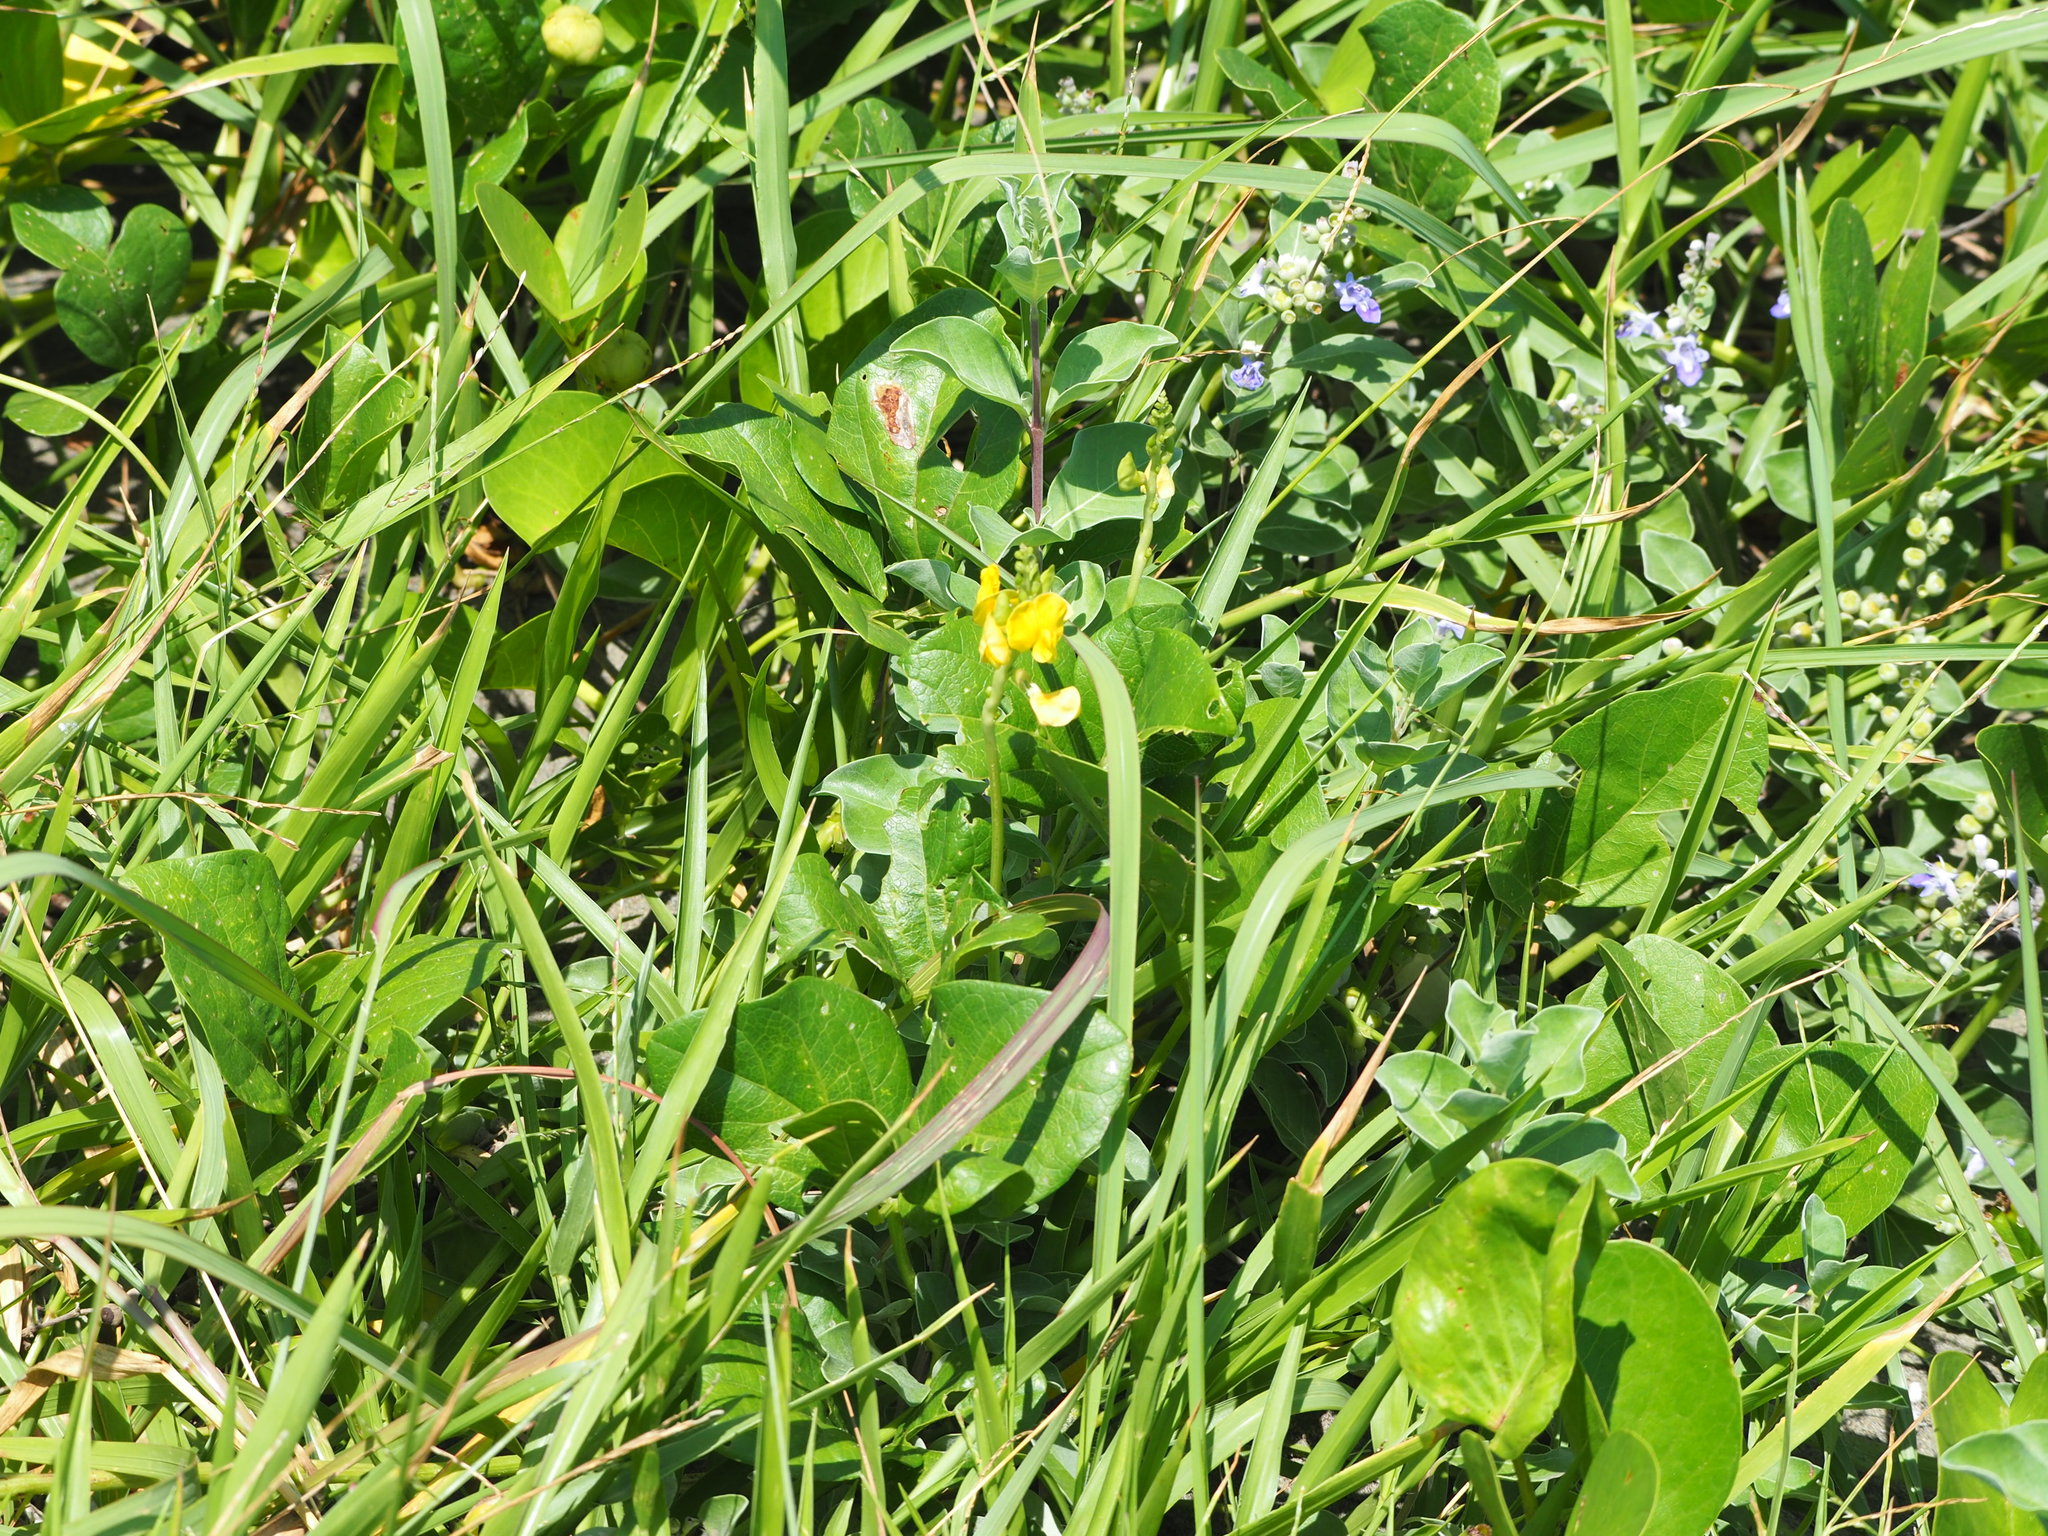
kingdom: Plantae
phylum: Tracheophyta
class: Magnoliopsida
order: Fabales
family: Fabaceae
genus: Vigna
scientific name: Vigna marina
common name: Dune-bean
